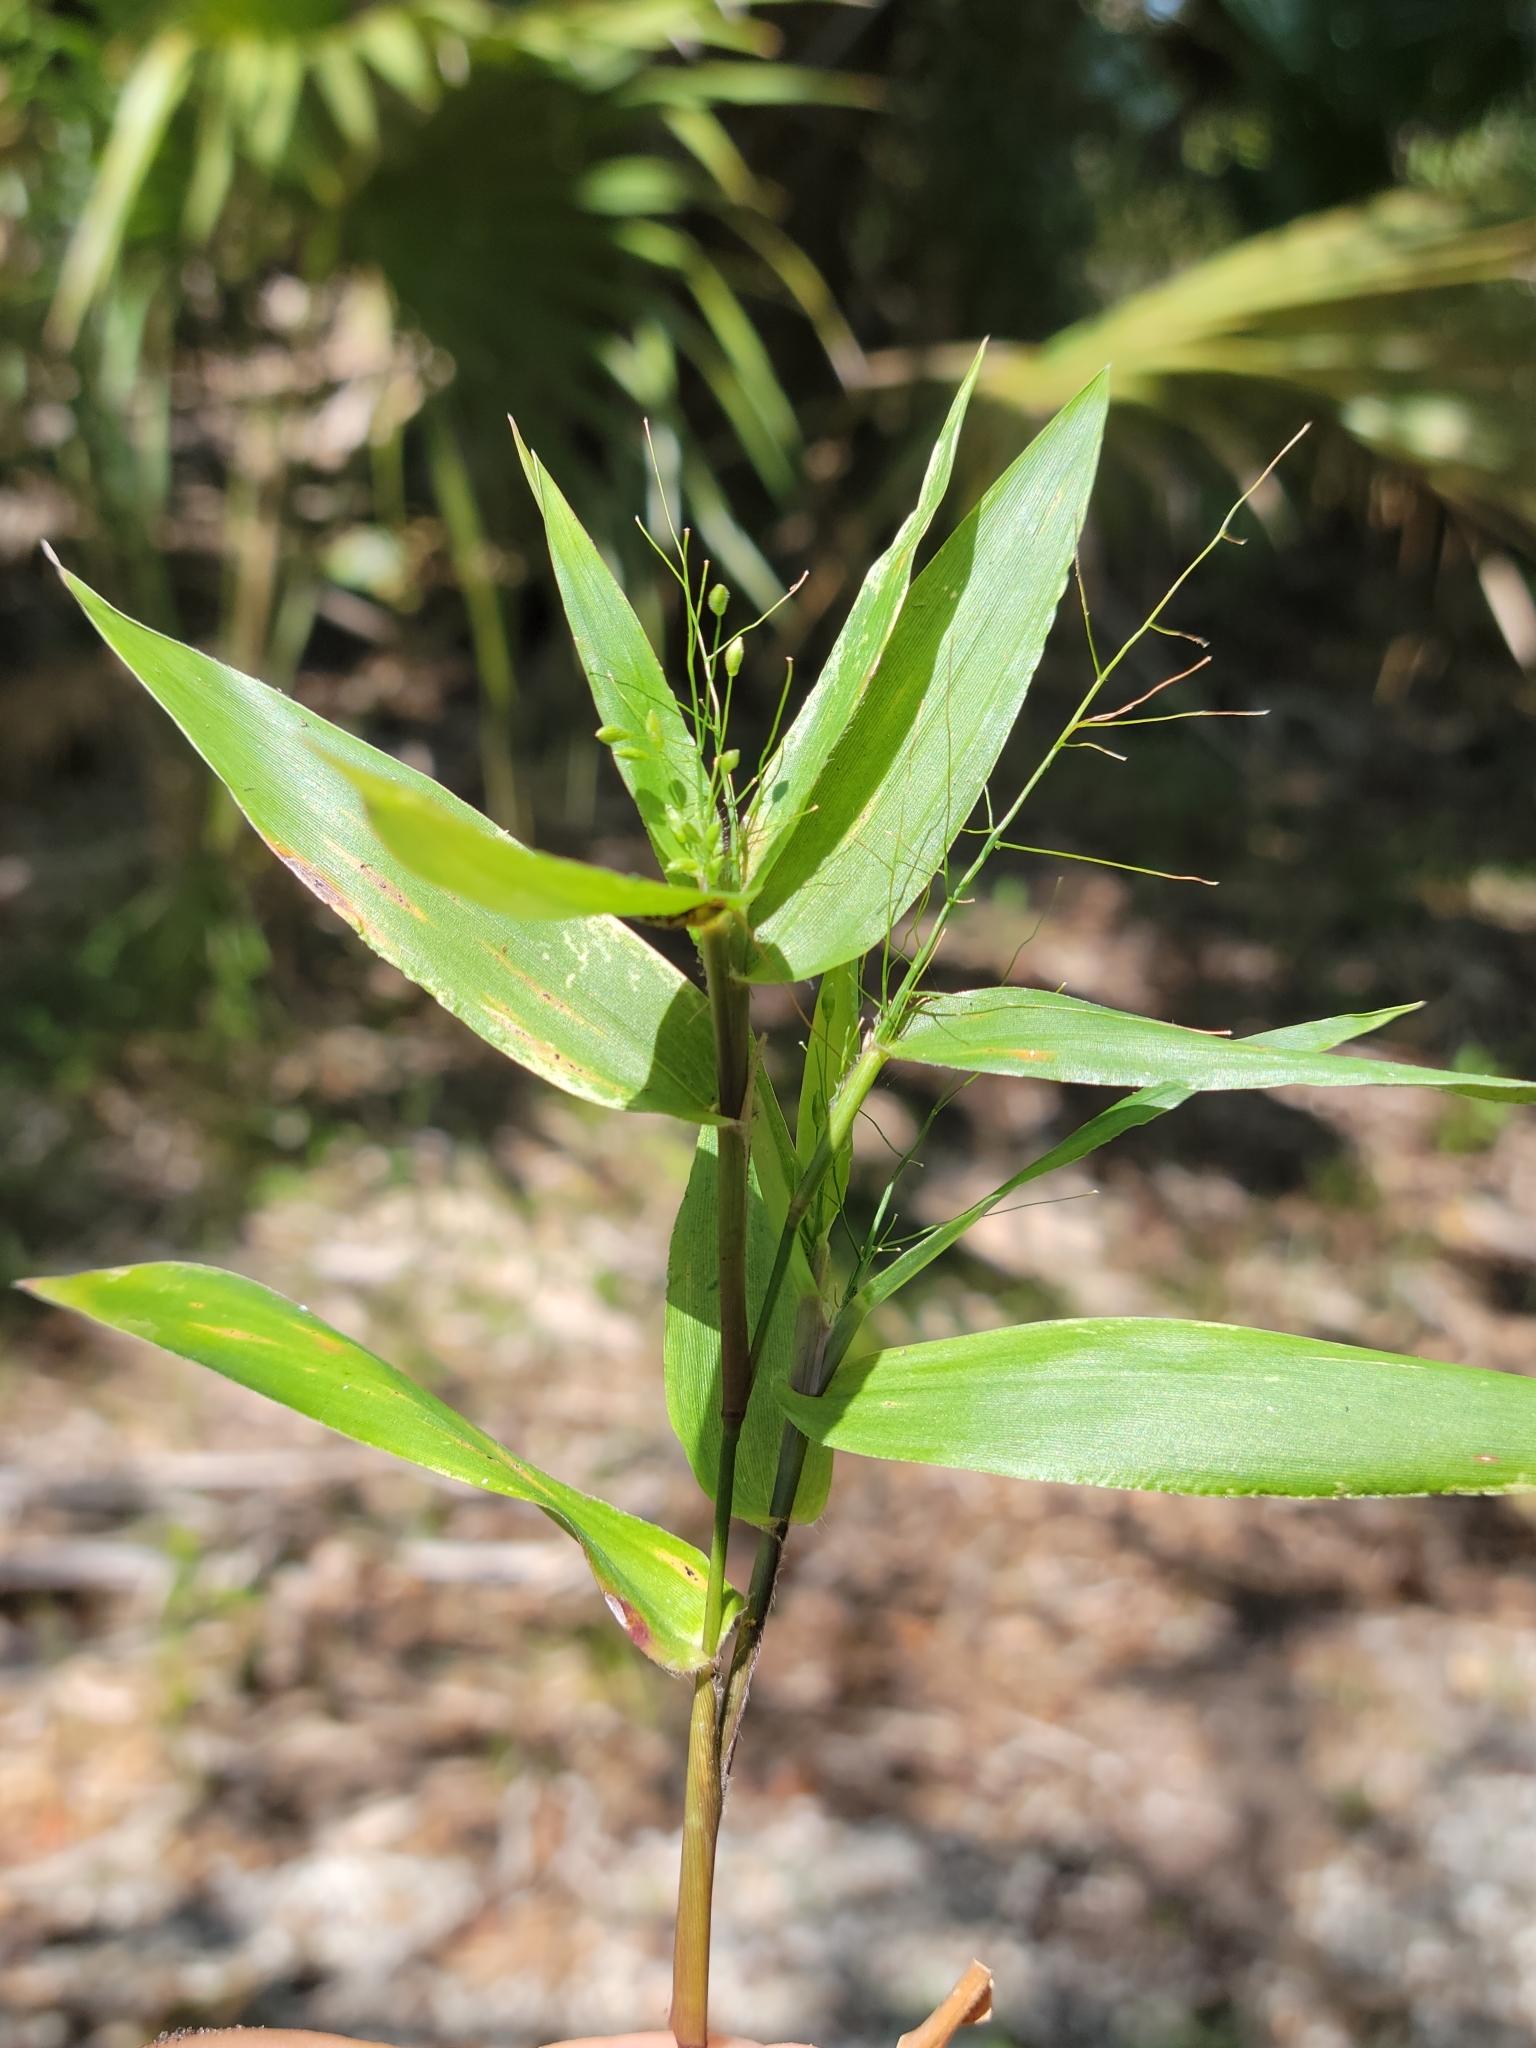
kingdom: Plantae
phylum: Tracheophyta
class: Liliopsida
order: Poales
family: Poaceae
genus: Dichanthelium
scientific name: Dichanthelium commutatum
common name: Variable witchgrass
